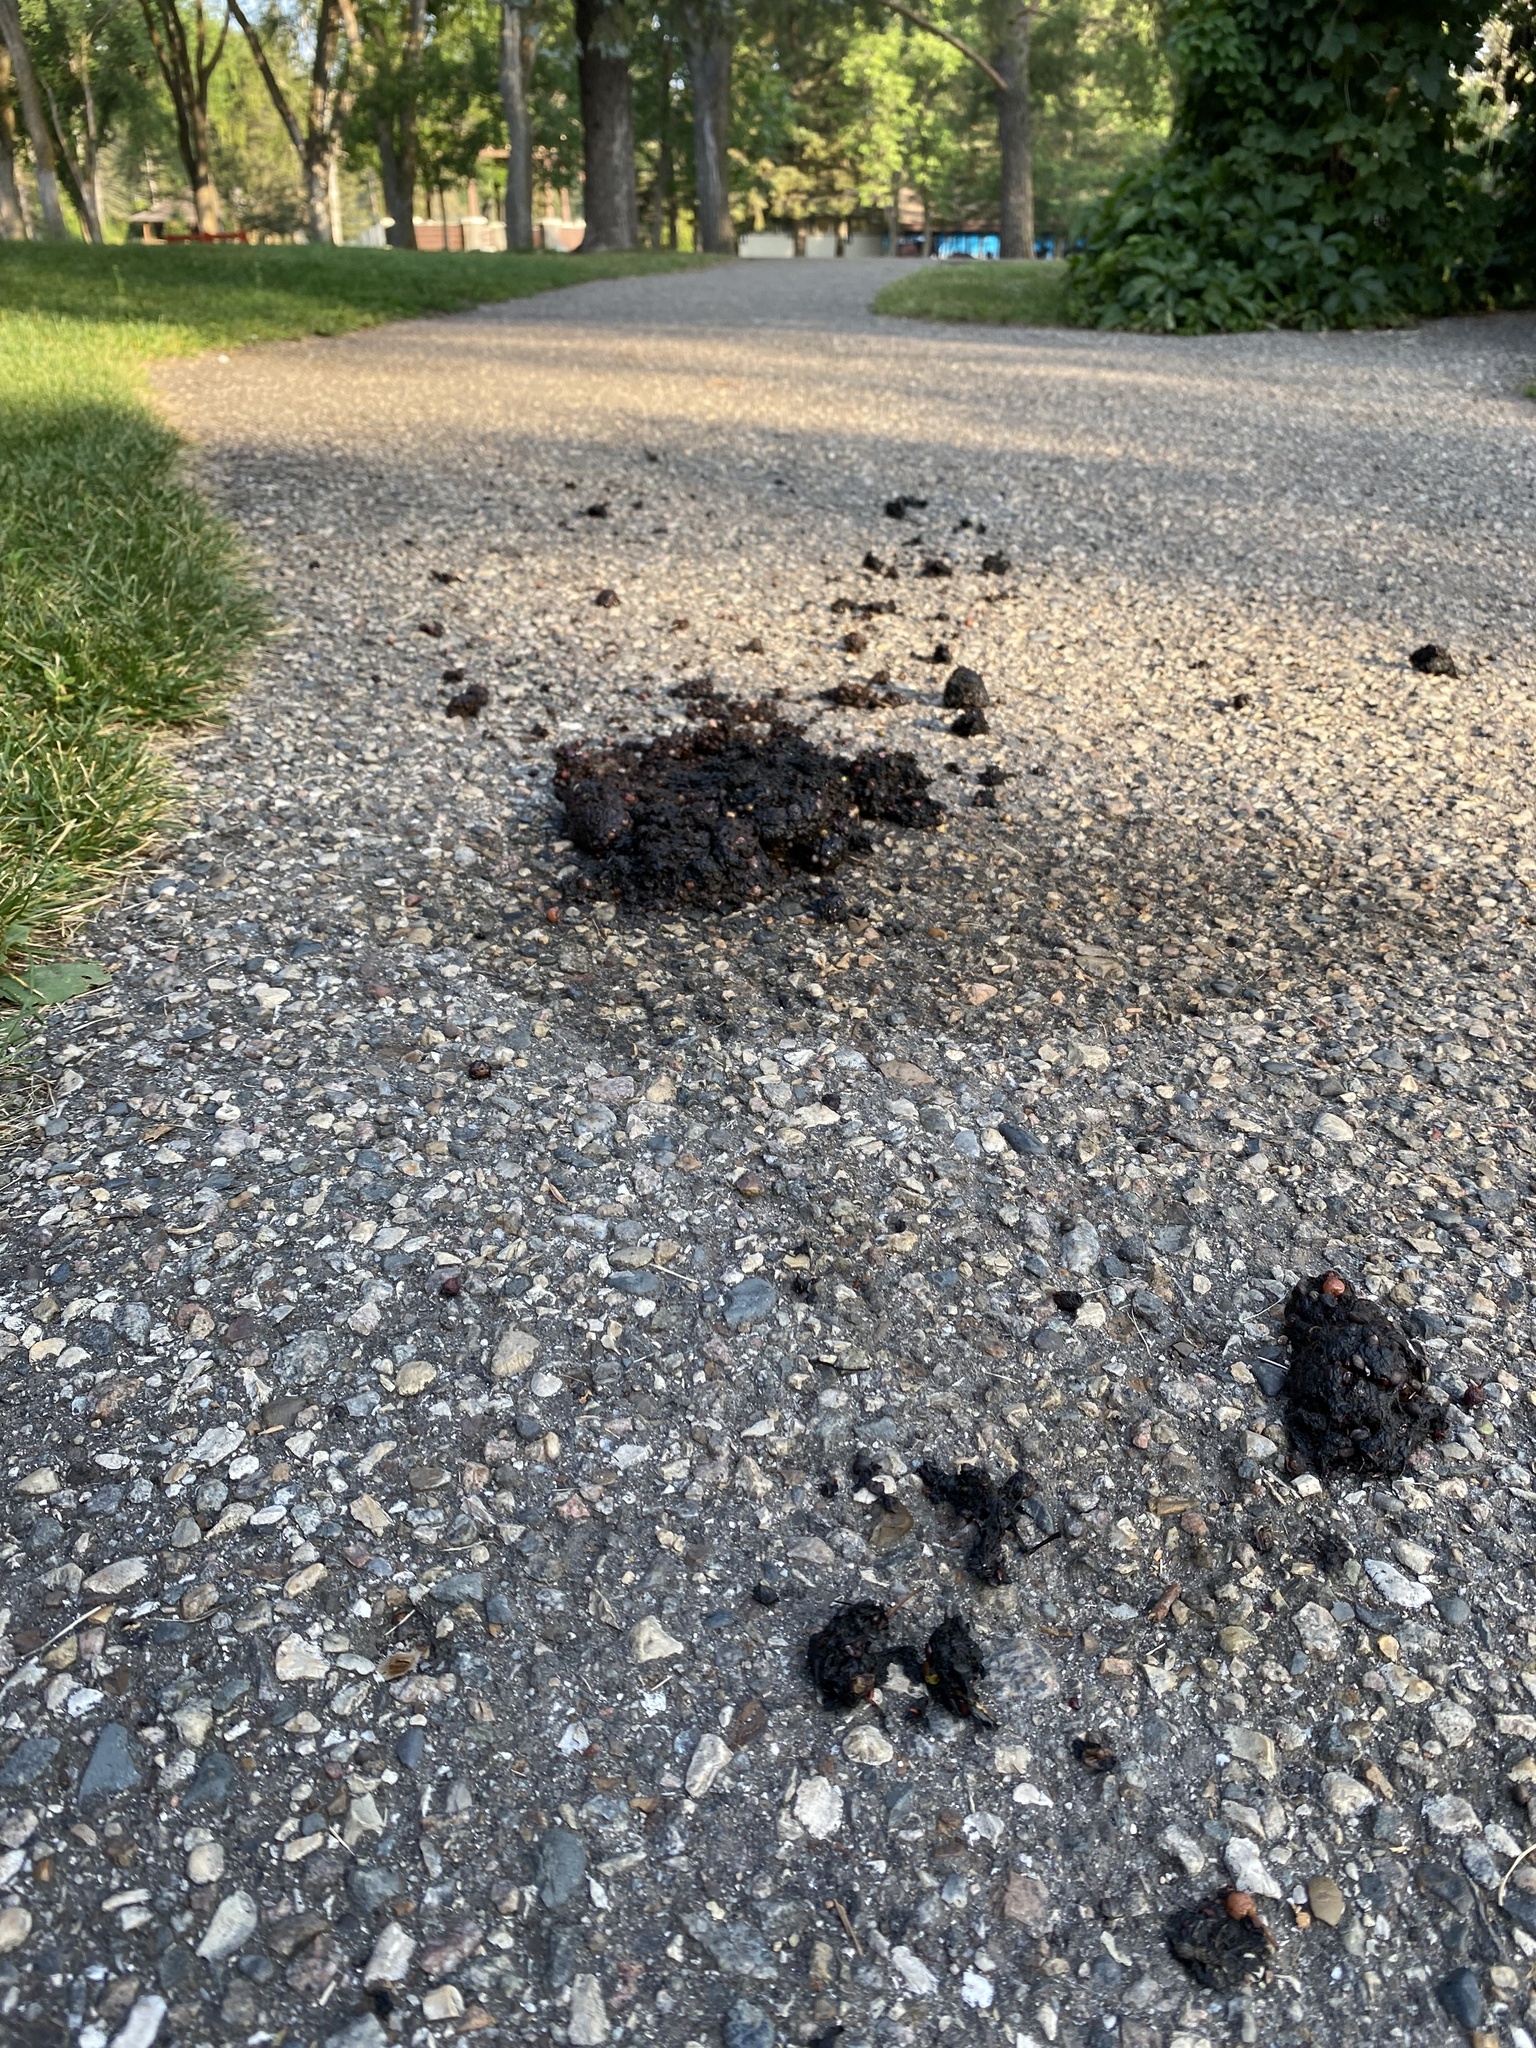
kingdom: Animalia
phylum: Chordata
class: Mammalia
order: Carnivora
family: Ursidae
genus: Ursus
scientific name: Ursus americanus
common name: American black bear
